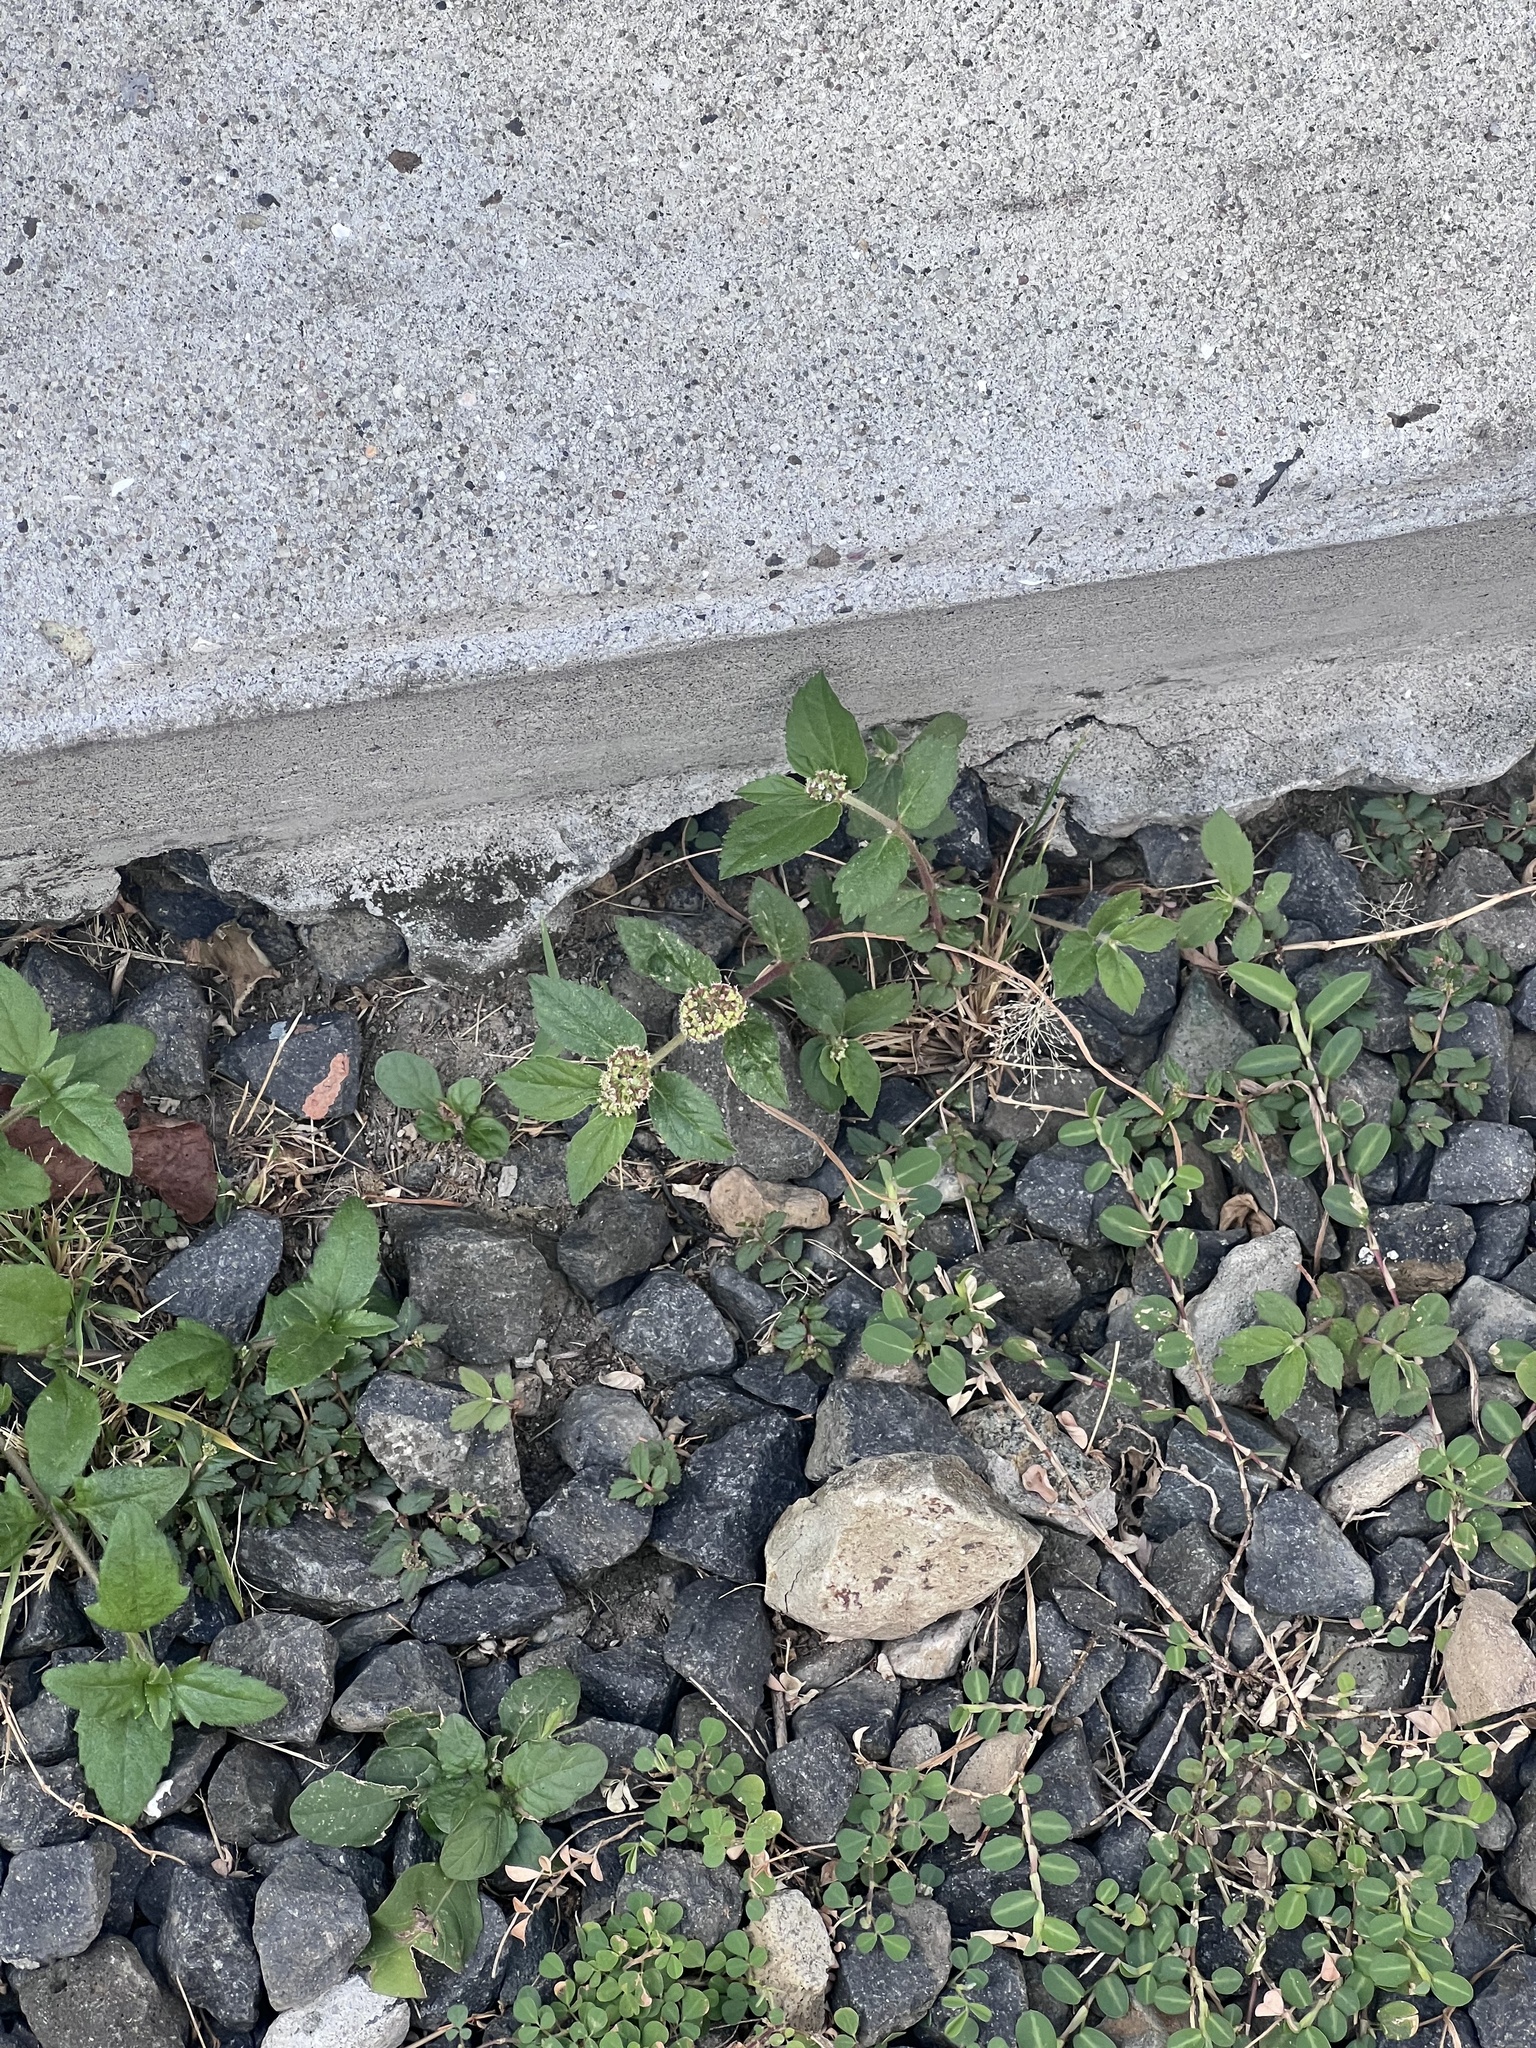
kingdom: Plantae
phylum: Tracheophyta
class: Magnoliopsida
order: Malpighiales
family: Euphorbiaceae
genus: Euphorbia
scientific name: Euphorbia hirta
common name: Pillpod sandmat
